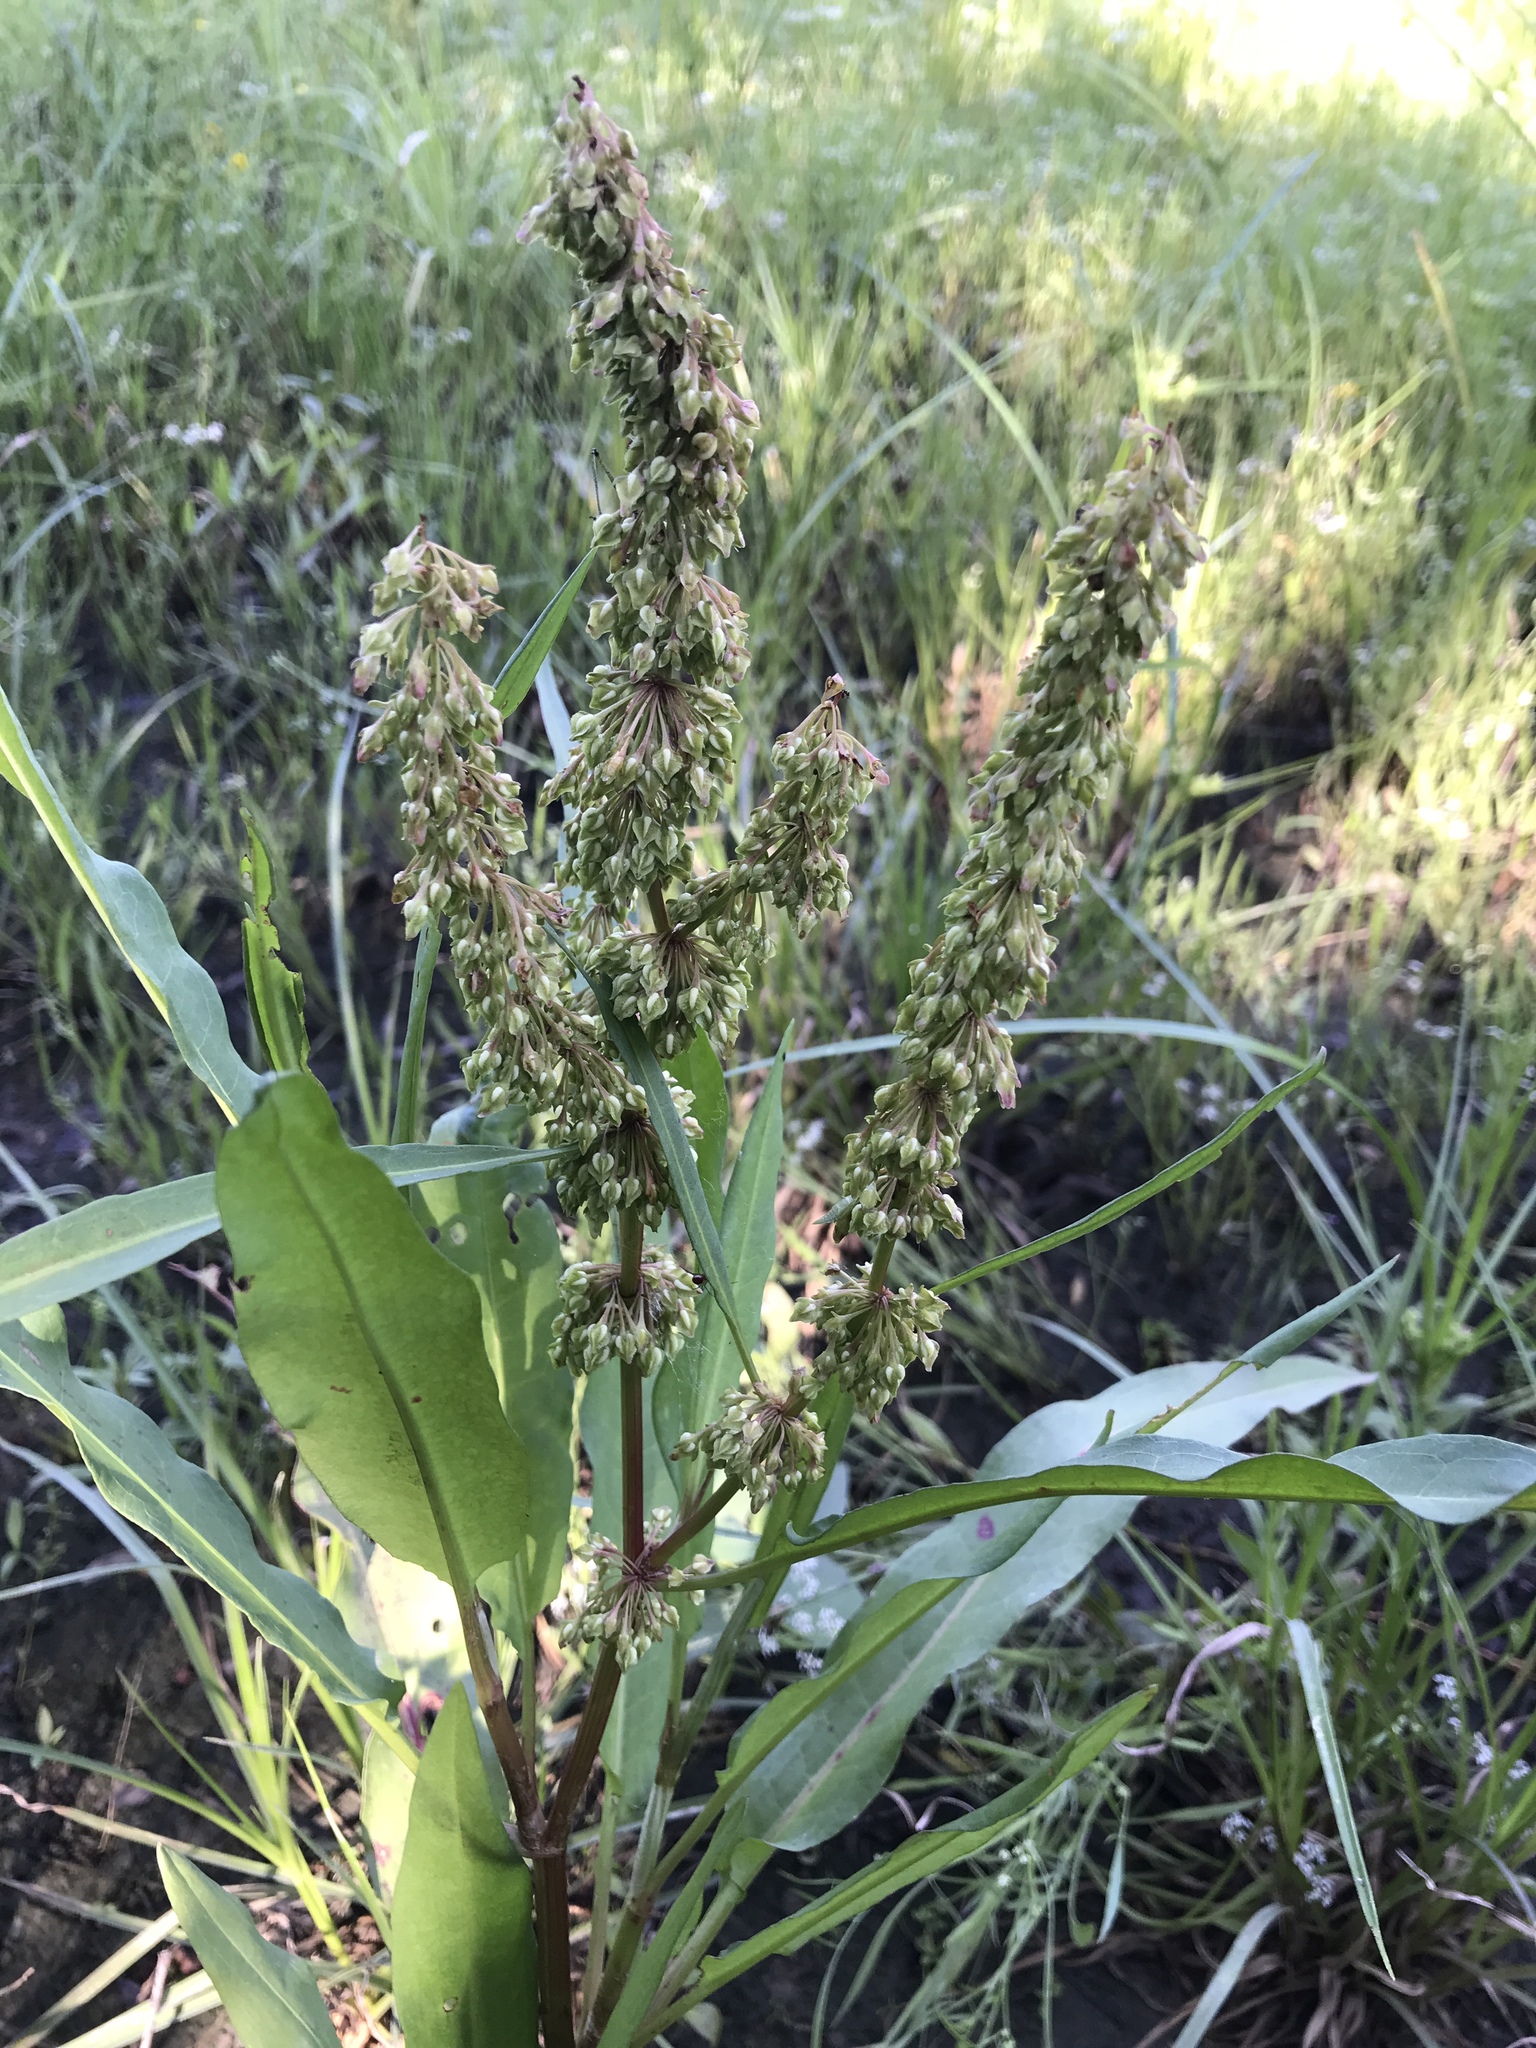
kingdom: Plantae
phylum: Tracheophyta
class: Magnoliopsida
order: Caryophyllales
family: Polygonaceae
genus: Rumex
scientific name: Rumex verticillatus
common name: Swamp dock
